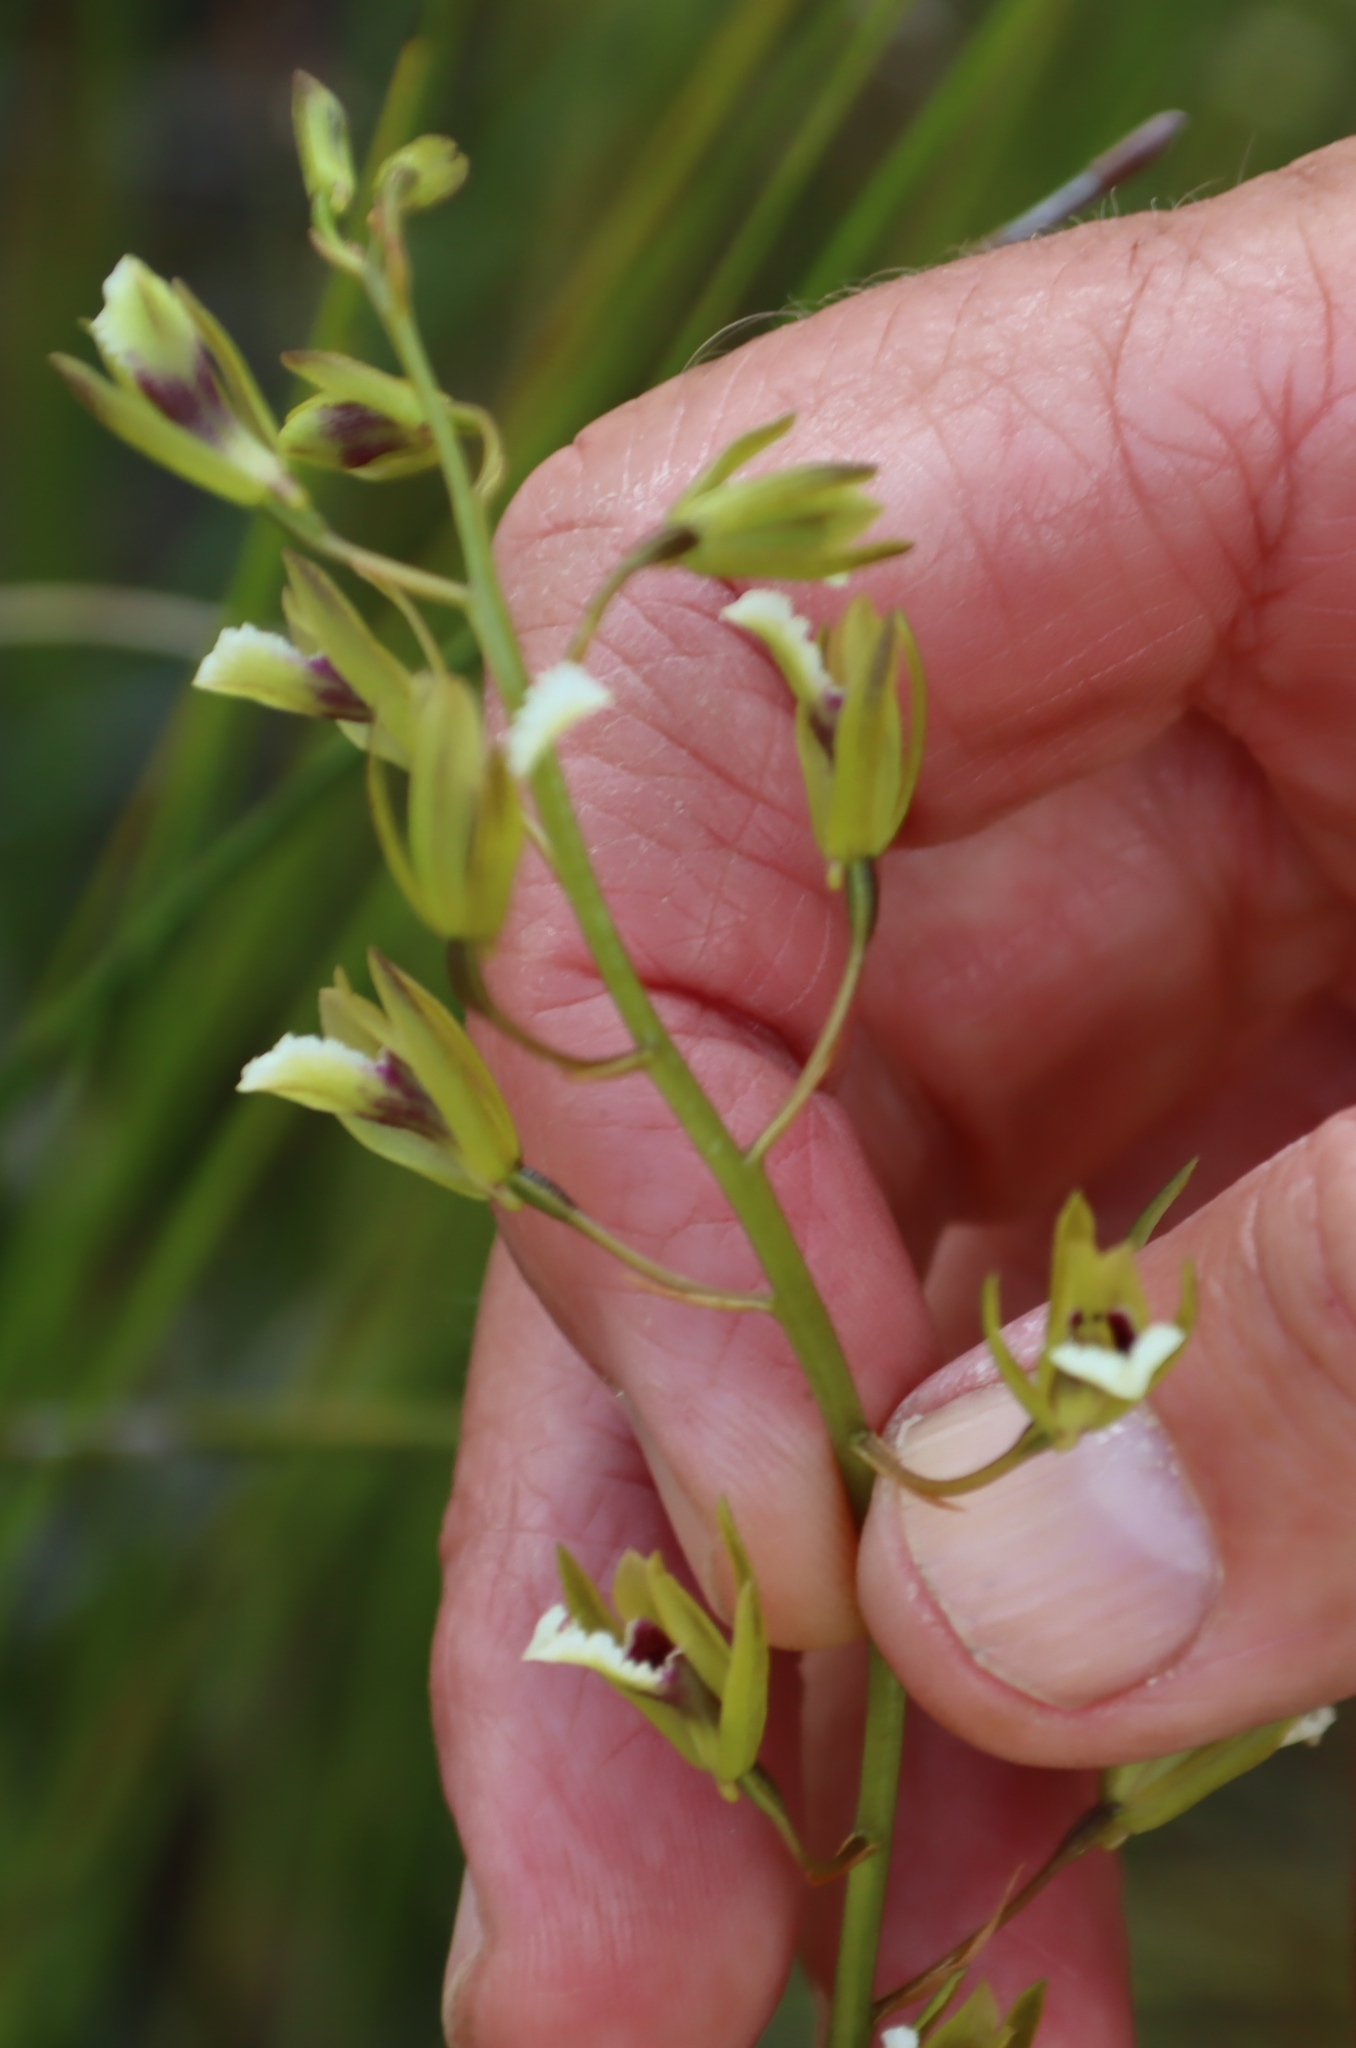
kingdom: Plantae
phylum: Tracheophyta
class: Liliopsida
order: Asparagales
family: Orchidaceae
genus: Eulophia
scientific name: Eulophia tristis
